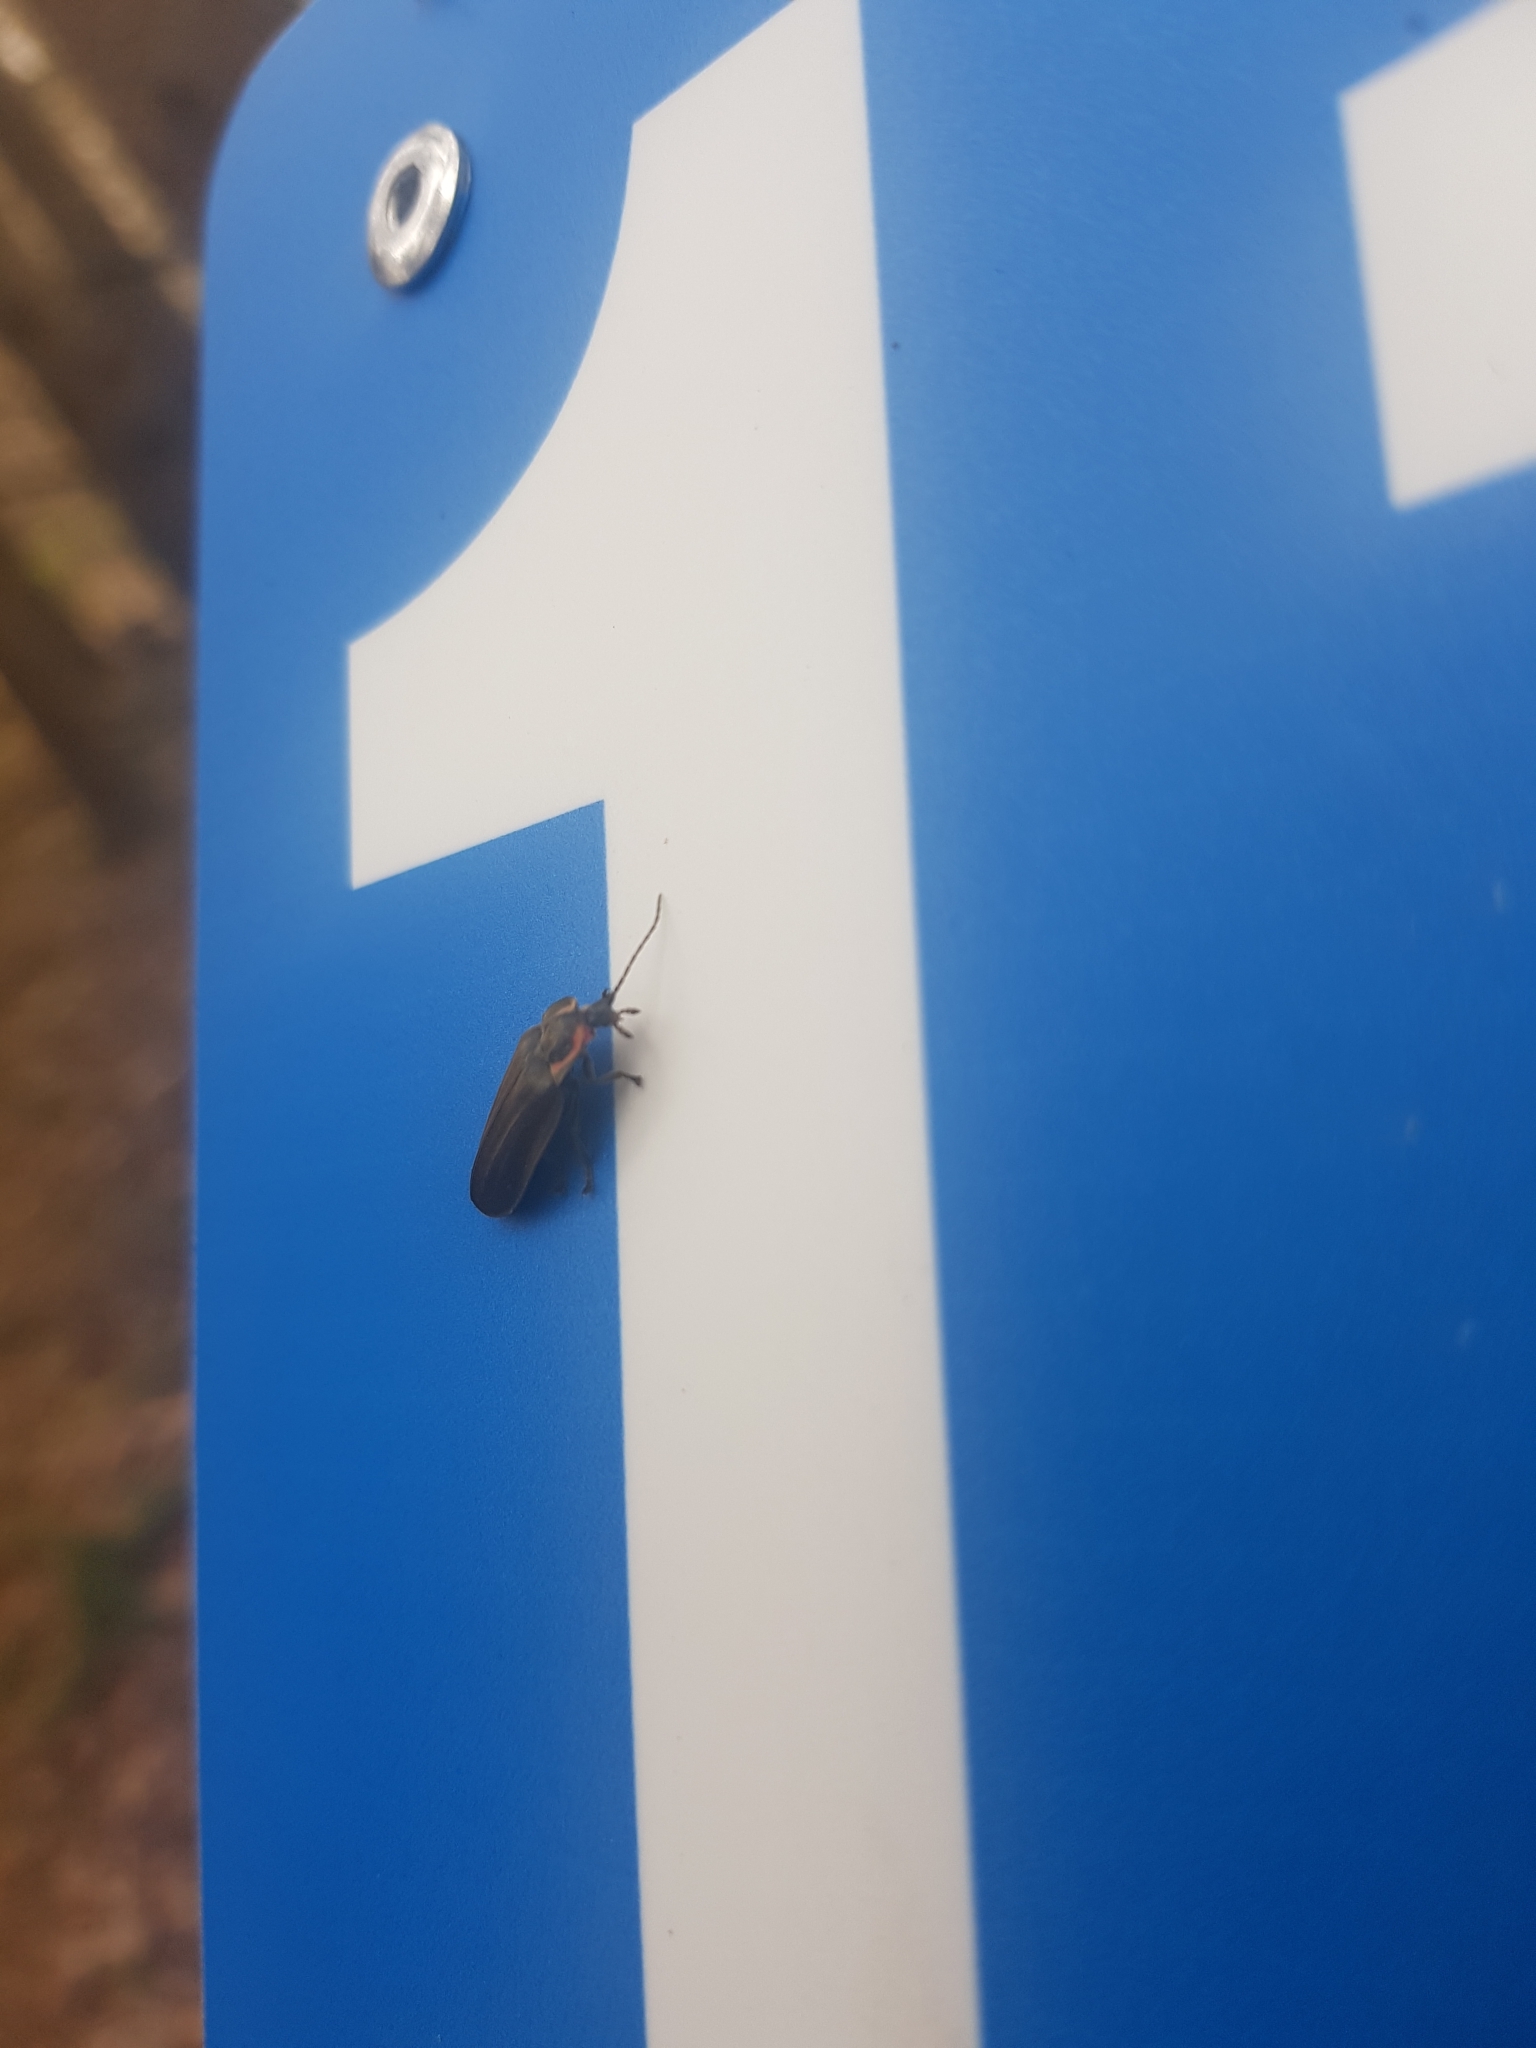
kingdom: Animalia
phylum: Arthropoda
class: Insecta
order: Coleoptera
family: Lampyridae
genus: Photinus
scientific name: Photinus corrusca
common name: Winter firefly
